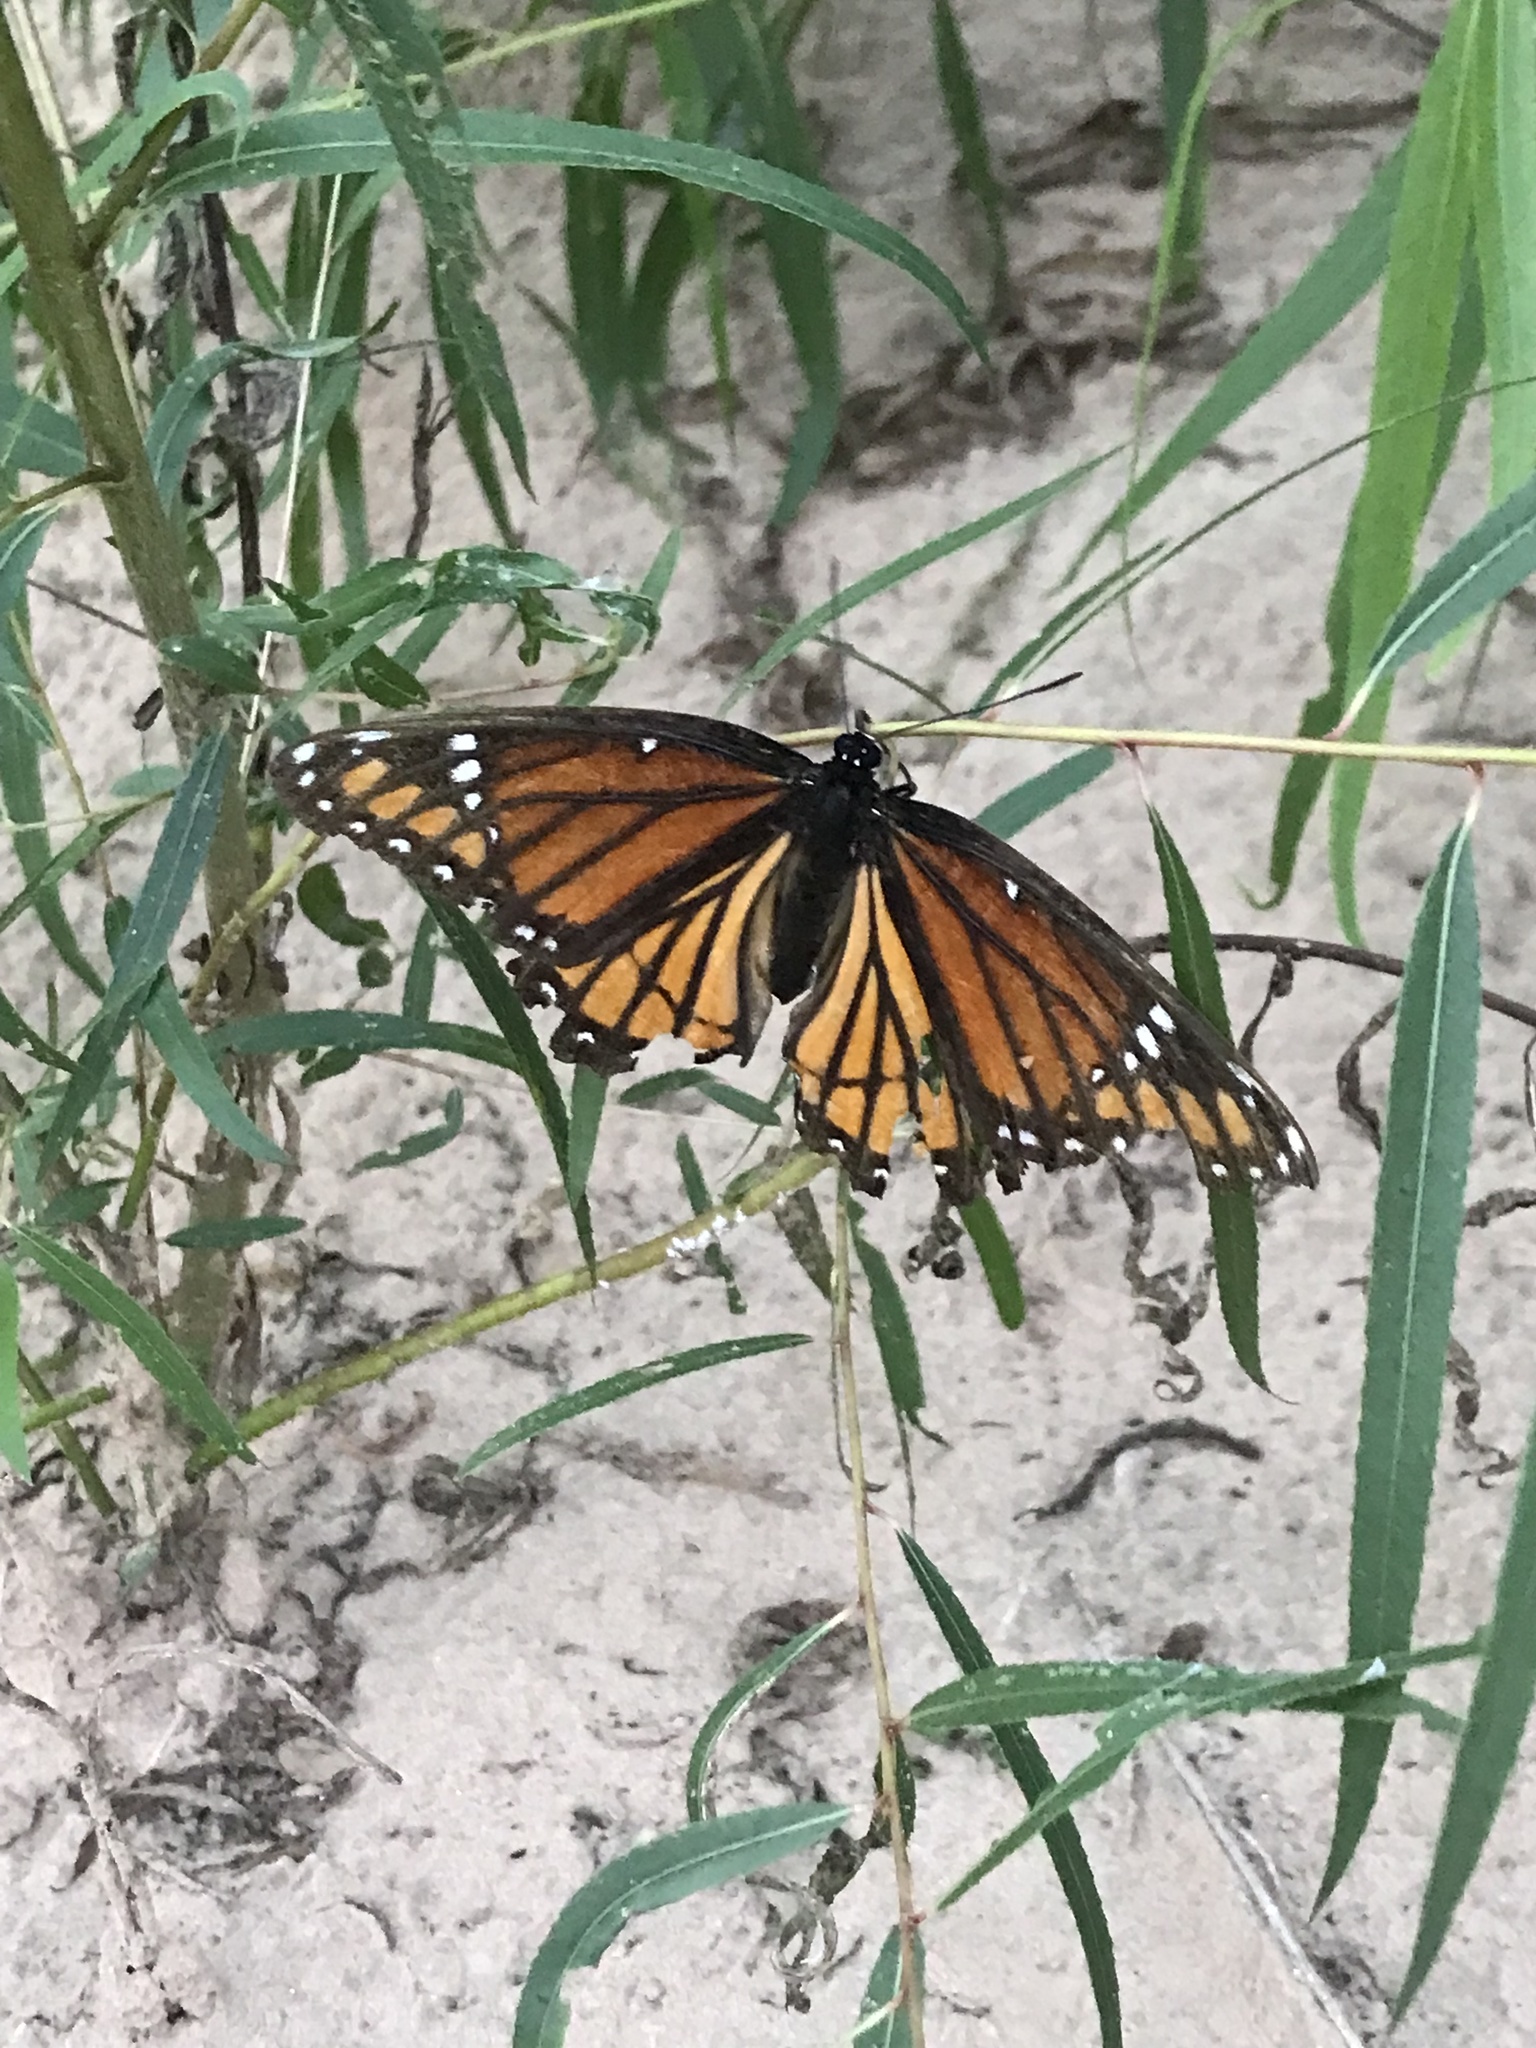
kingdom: Animalia
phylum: Arthropoda
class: Insecta
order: Lepidoptera
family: Nymphalidae
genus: Limenitis
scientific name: Limenitis archippus
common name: Viceroy
